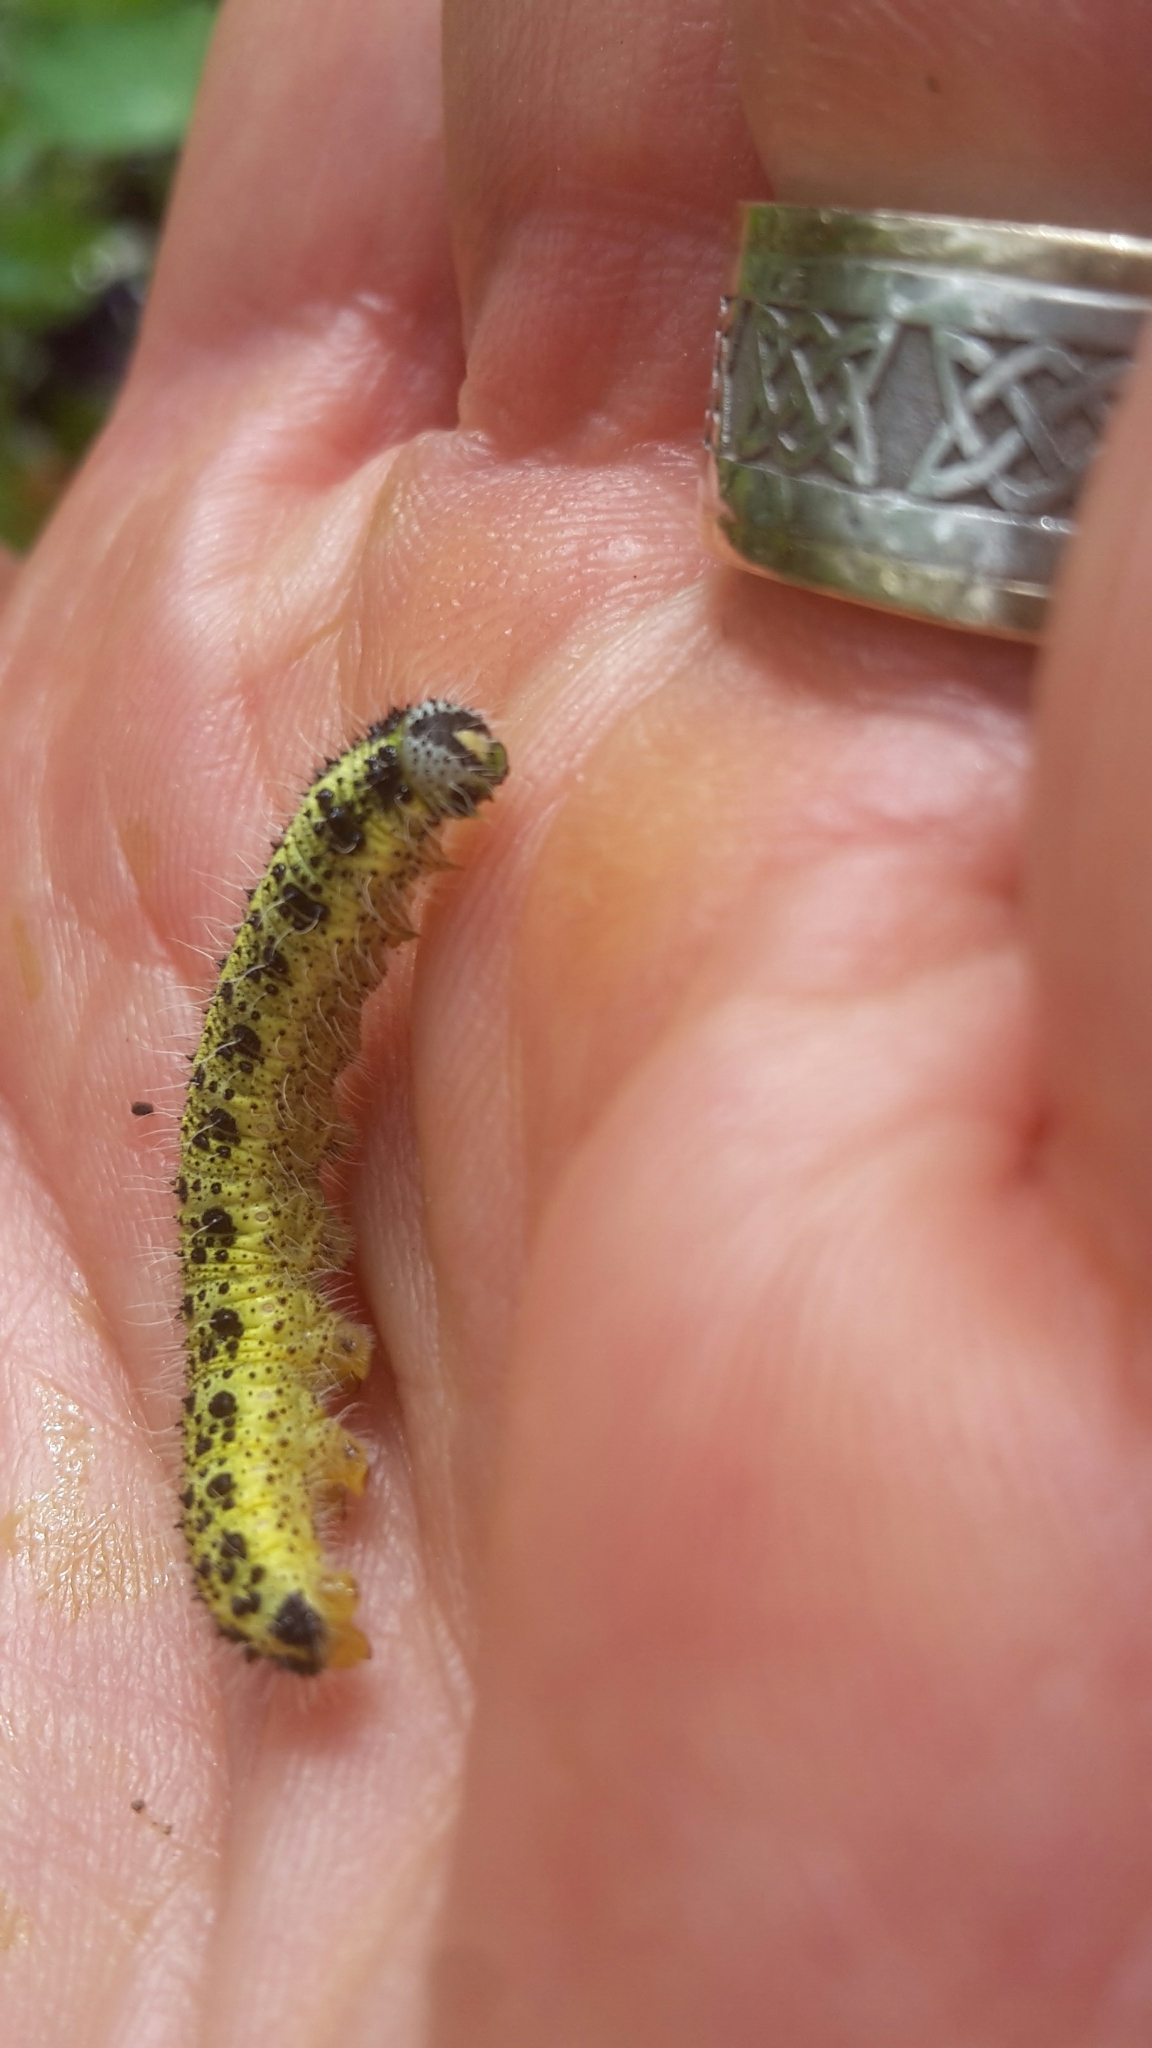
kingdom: Animalia
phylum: Arthropoda
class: Insecta
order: Lepidoptera
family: Pieridae
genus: Pieris
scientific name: Pieris brassicae
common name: Large white
